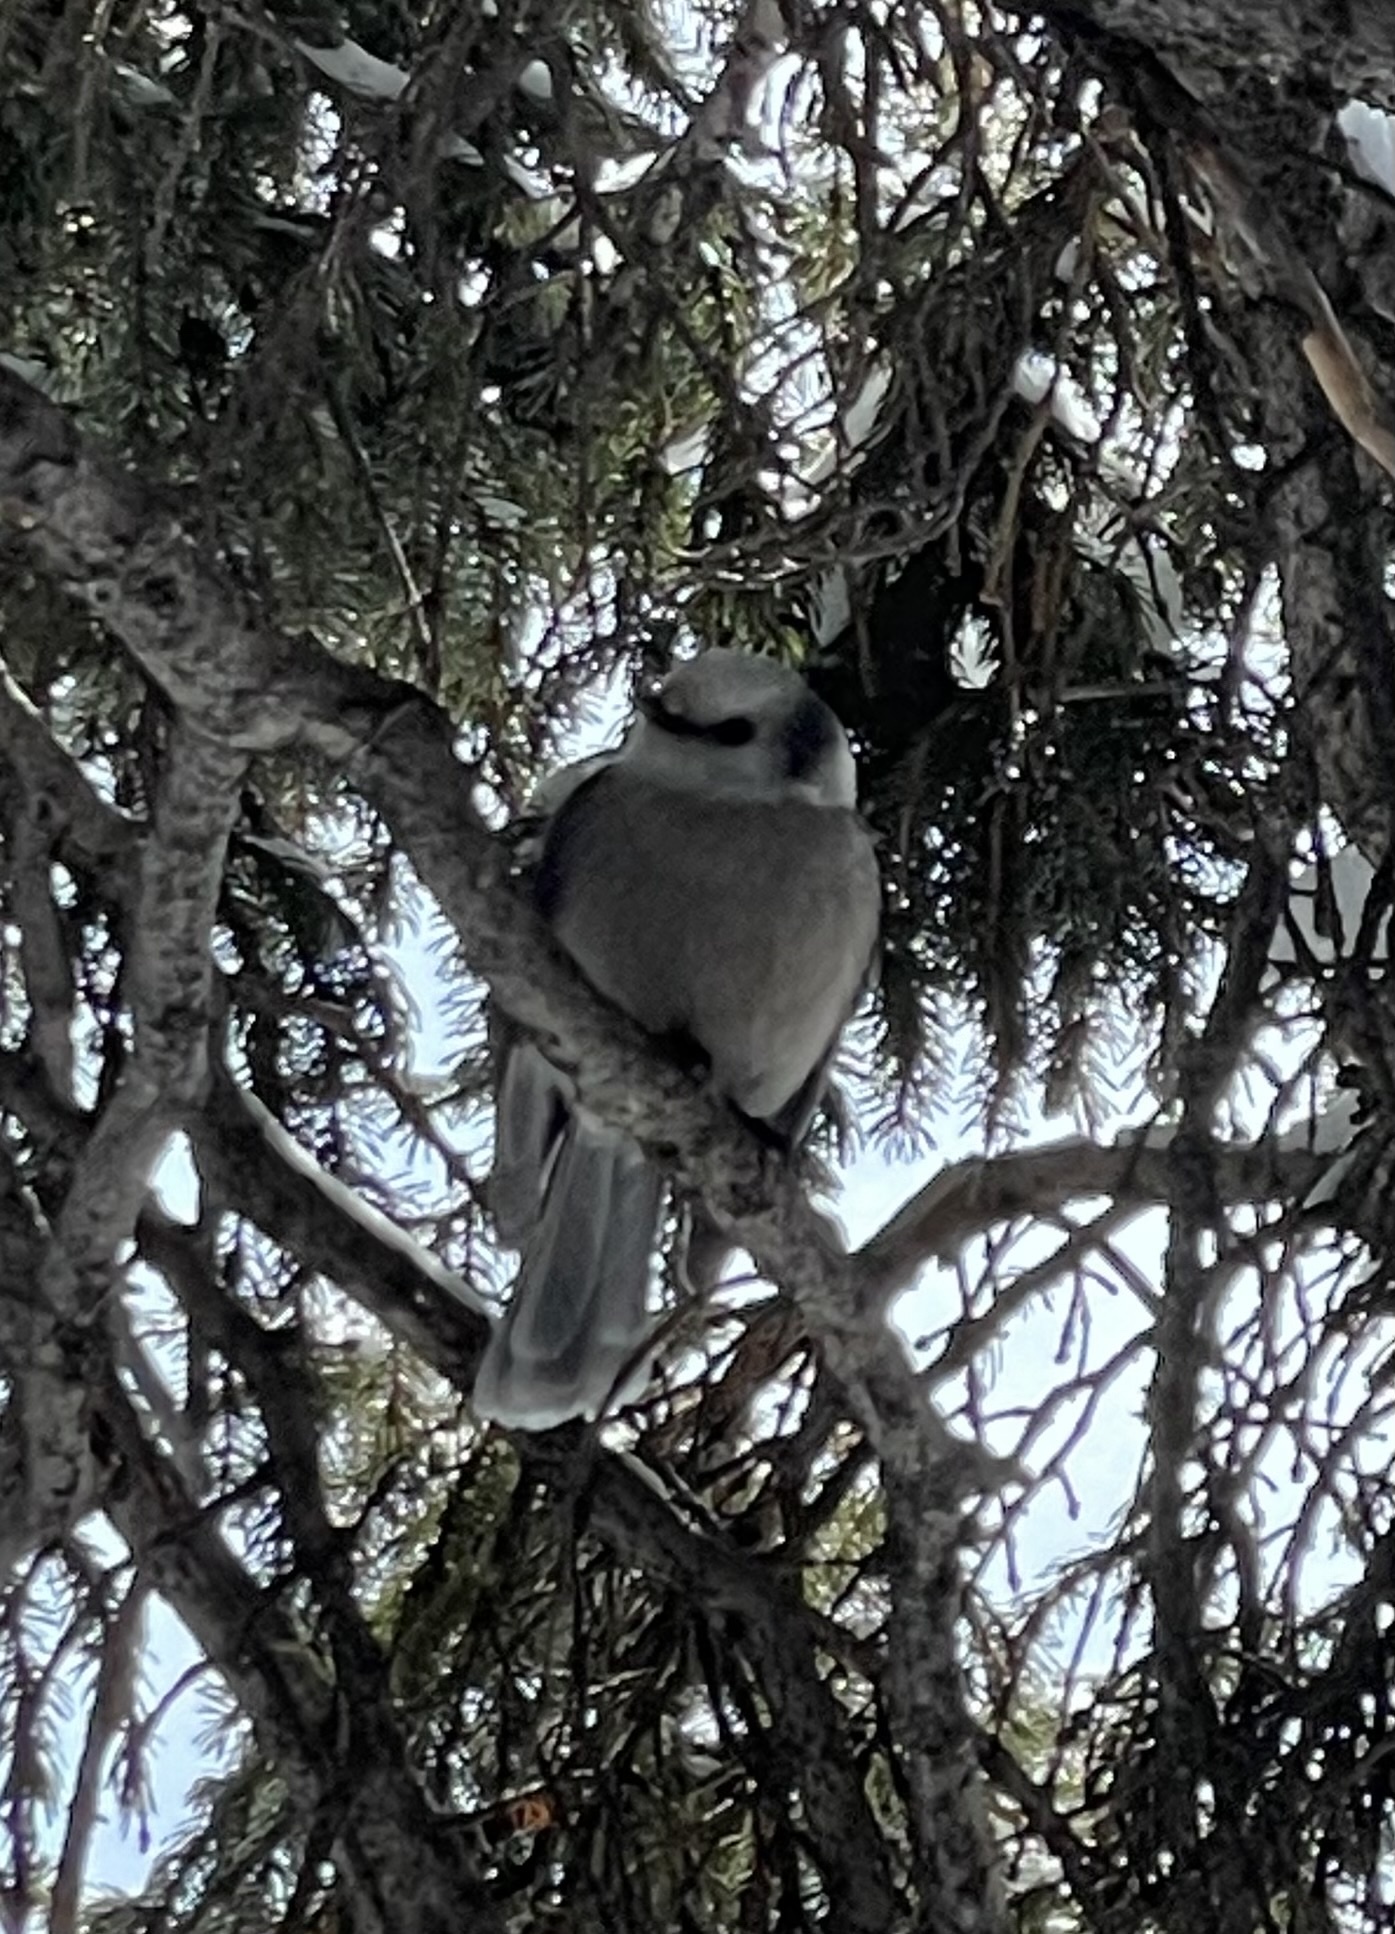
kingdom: Animalia
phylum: Chordata
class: Aves
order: Passeriformes
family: Corvidae
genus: Perisoreus
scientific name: Perisoreus canadensis
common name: Gray jay
